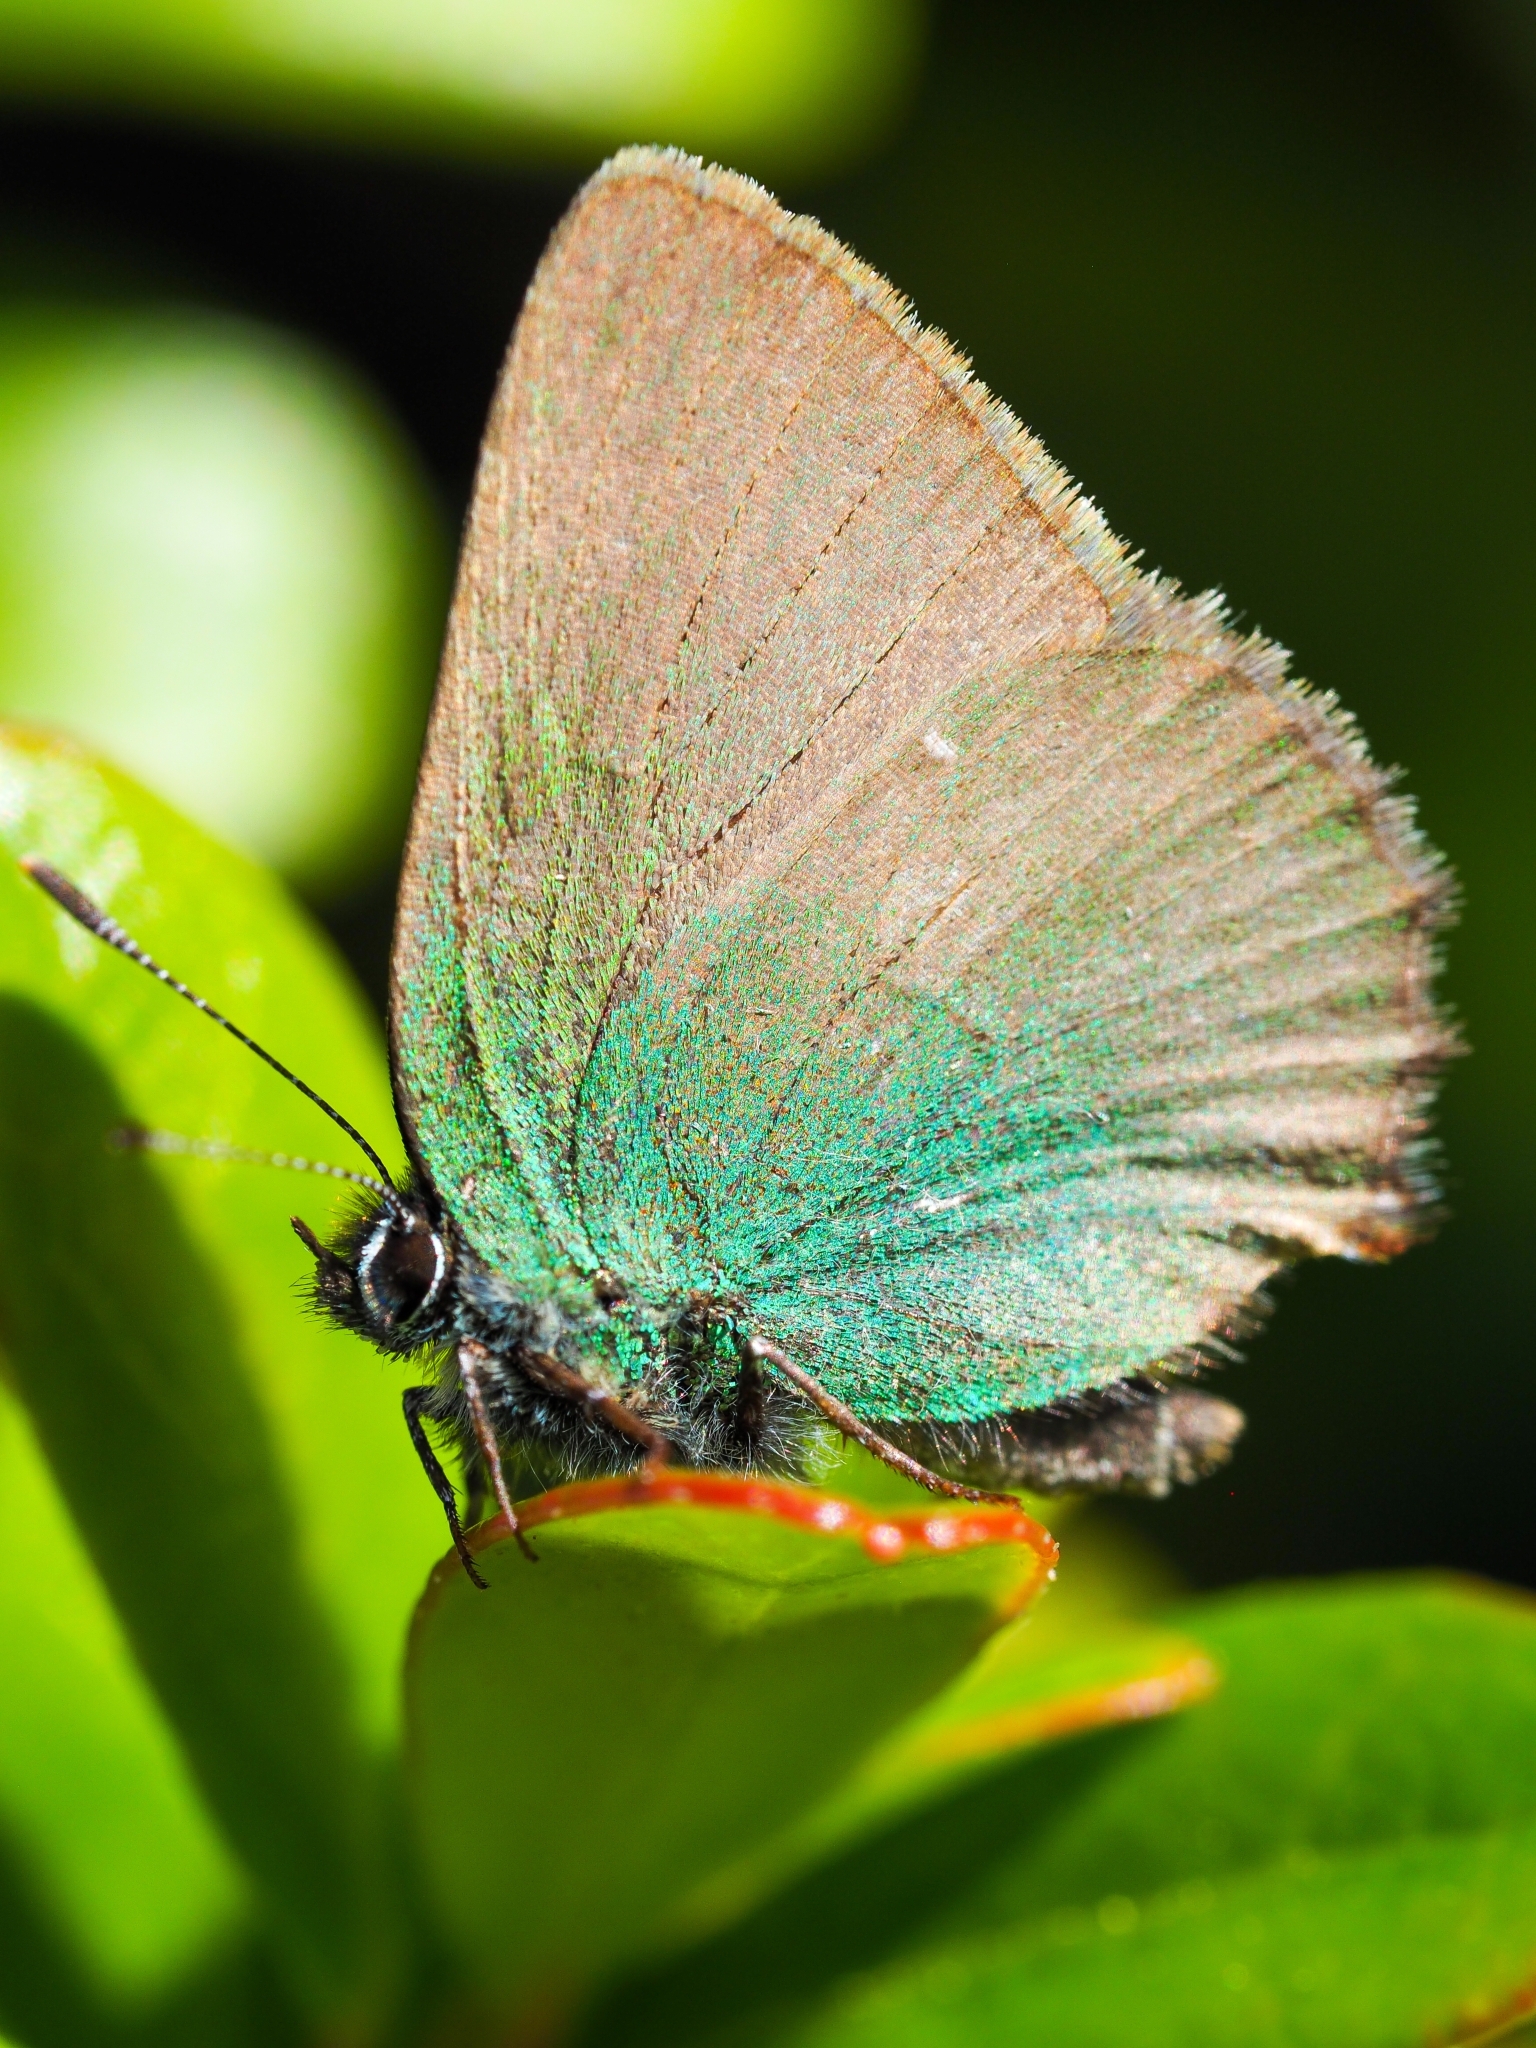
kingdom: Animalia
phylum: Arthropoda
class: Insecta
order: Lepidoptera
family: Lycaenidae
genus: Callophrys
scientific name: Callophrys rubi
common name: Green hairstreak
